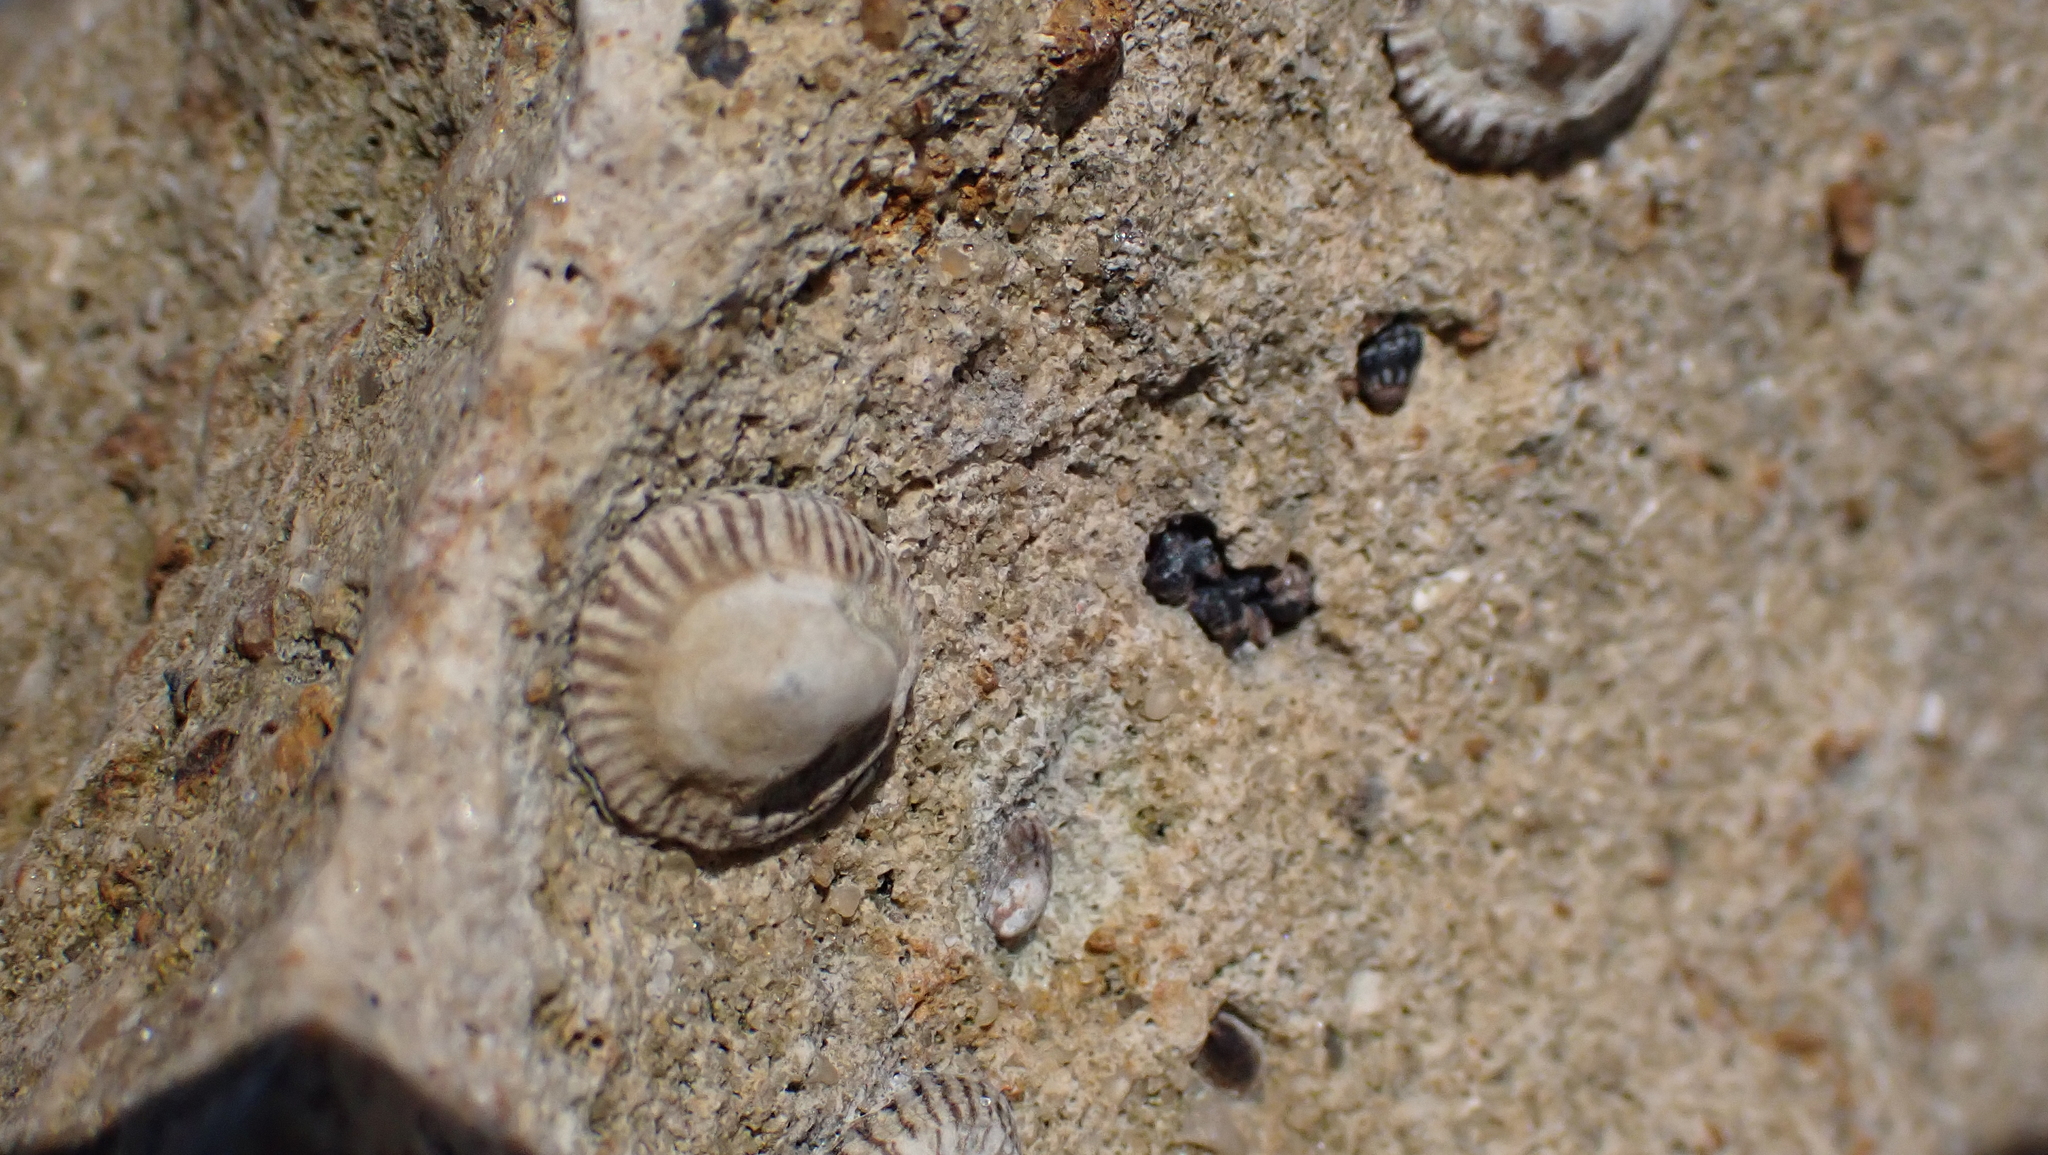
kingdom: Animalia
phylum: Mollusca
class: Gastropoda
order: Siphonariida
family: Siphonariidae
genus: Siphonaria
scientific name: Siphonaria naufragum
